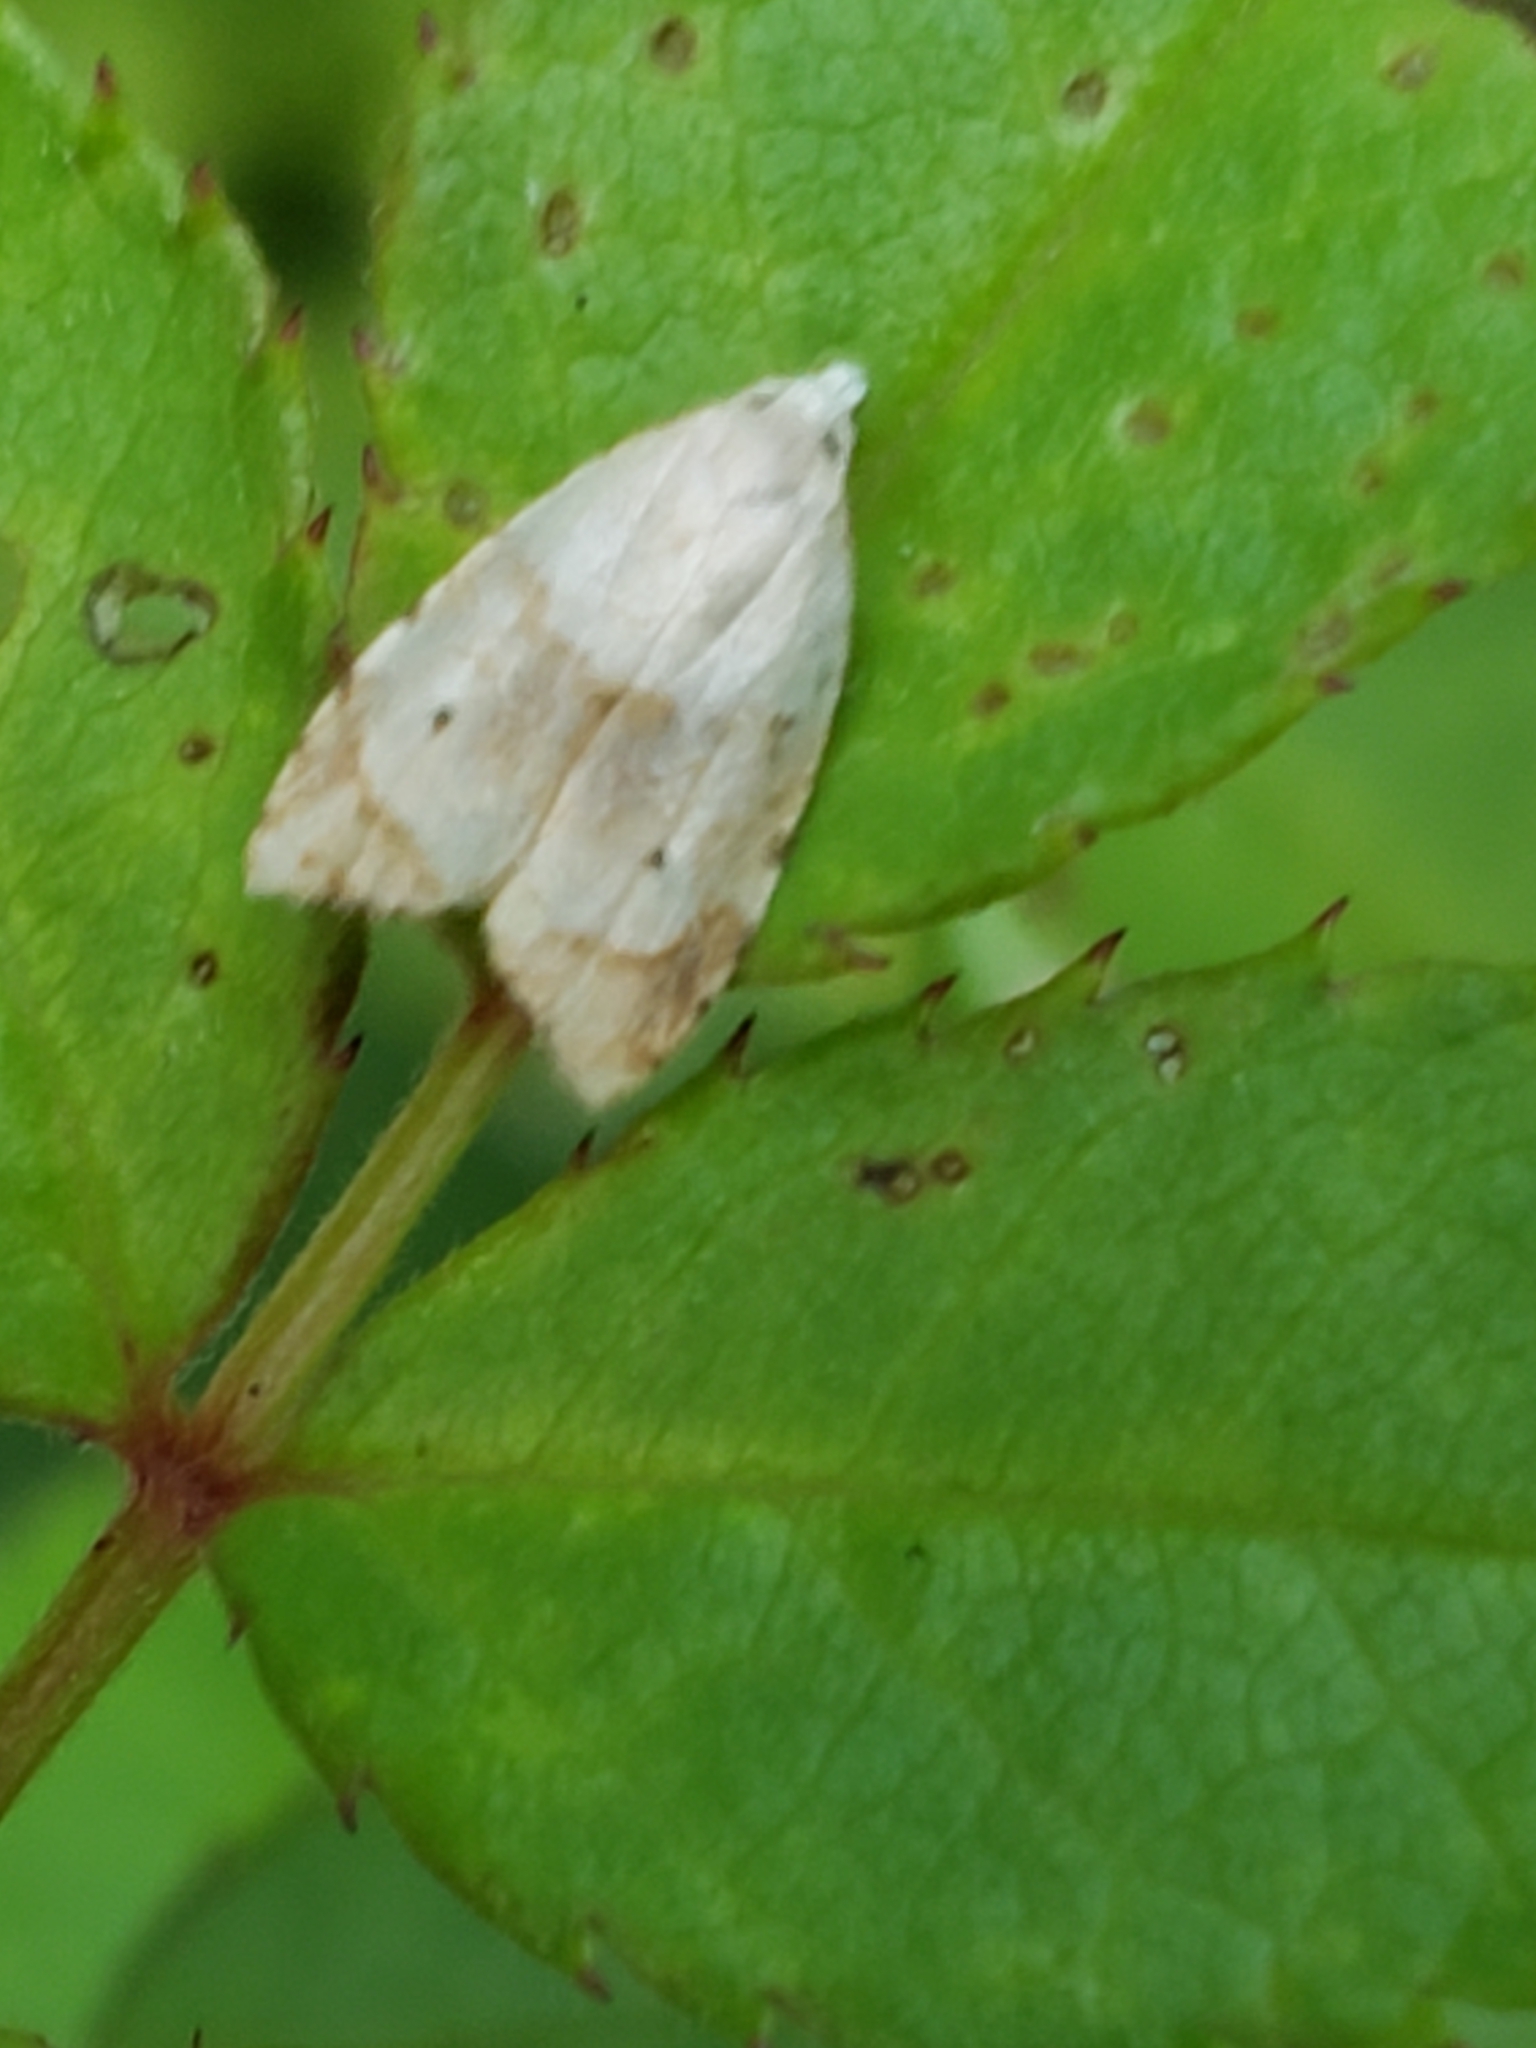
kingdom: Animalia
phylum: Arthropoda
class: Insecta
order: Lepidoptera
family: Tortricidae
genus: Coelostathma
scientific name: Coelostathma discopunctana
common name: Batman moth
